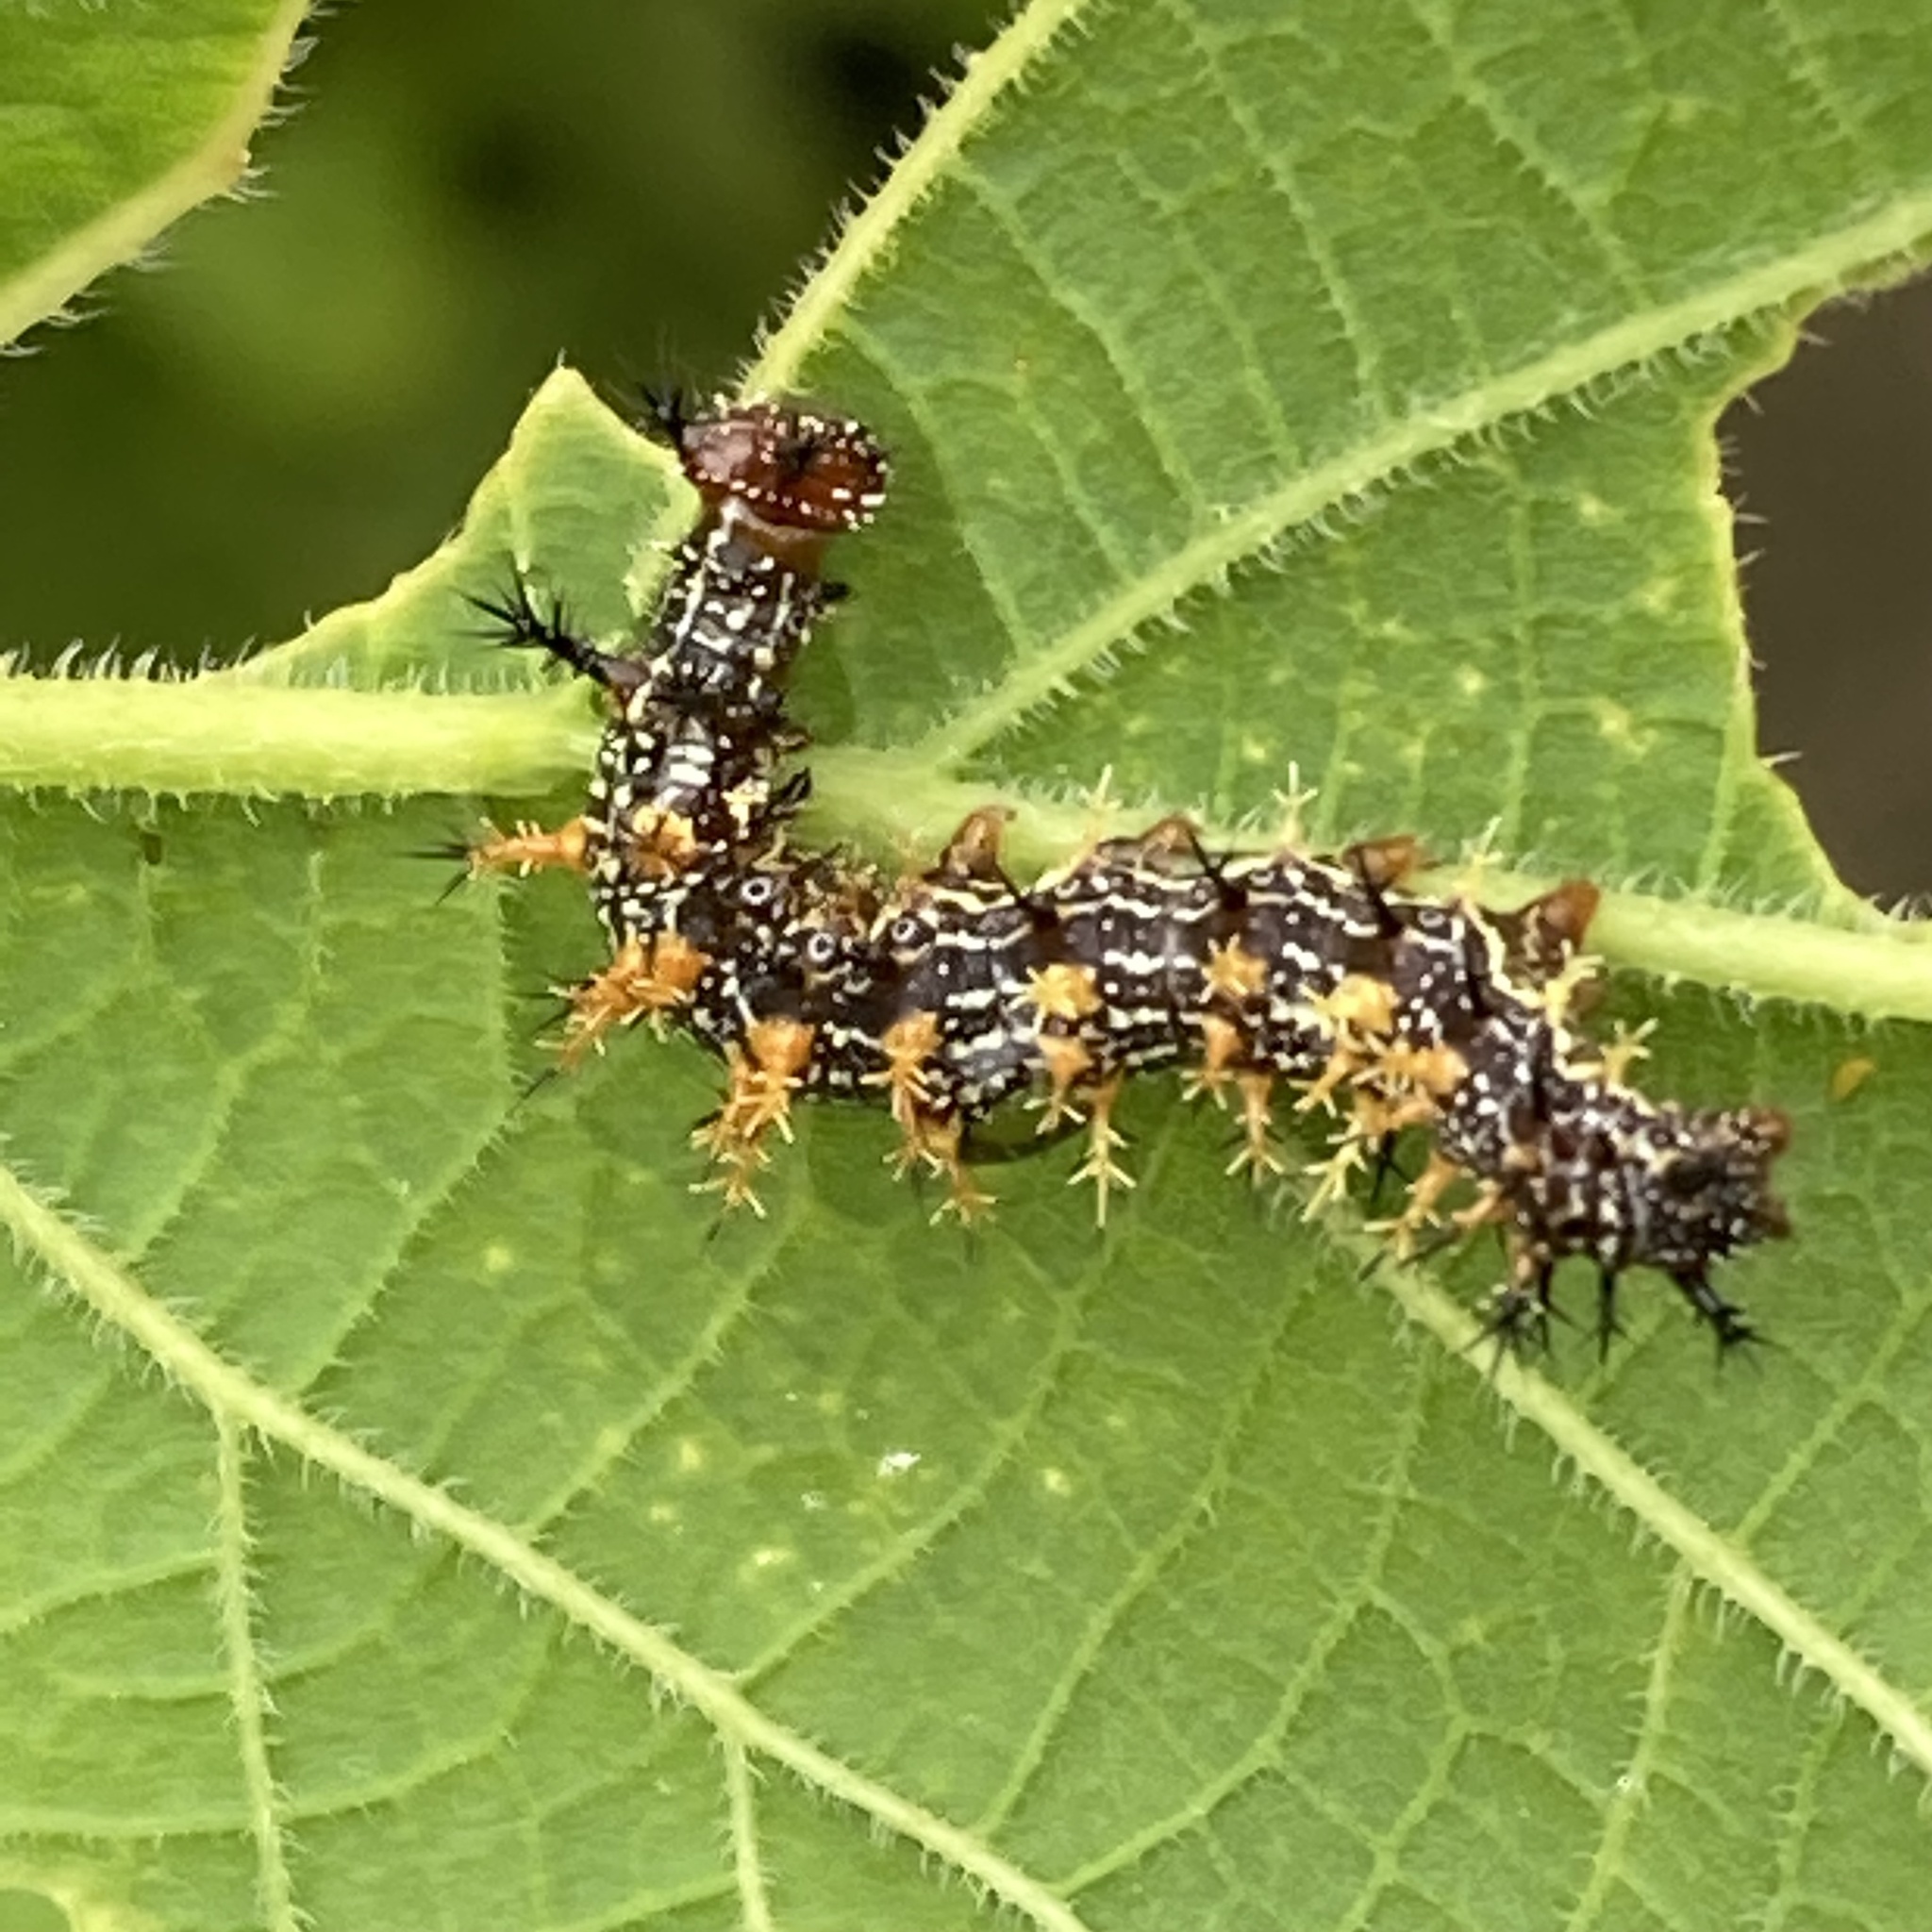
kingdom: Animalia
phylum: Arthropoda
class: Insecta
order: Lepidoptera
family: Nymphalidae
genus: Polygonia
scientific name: Polygonia interrogationis
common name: Question mark
